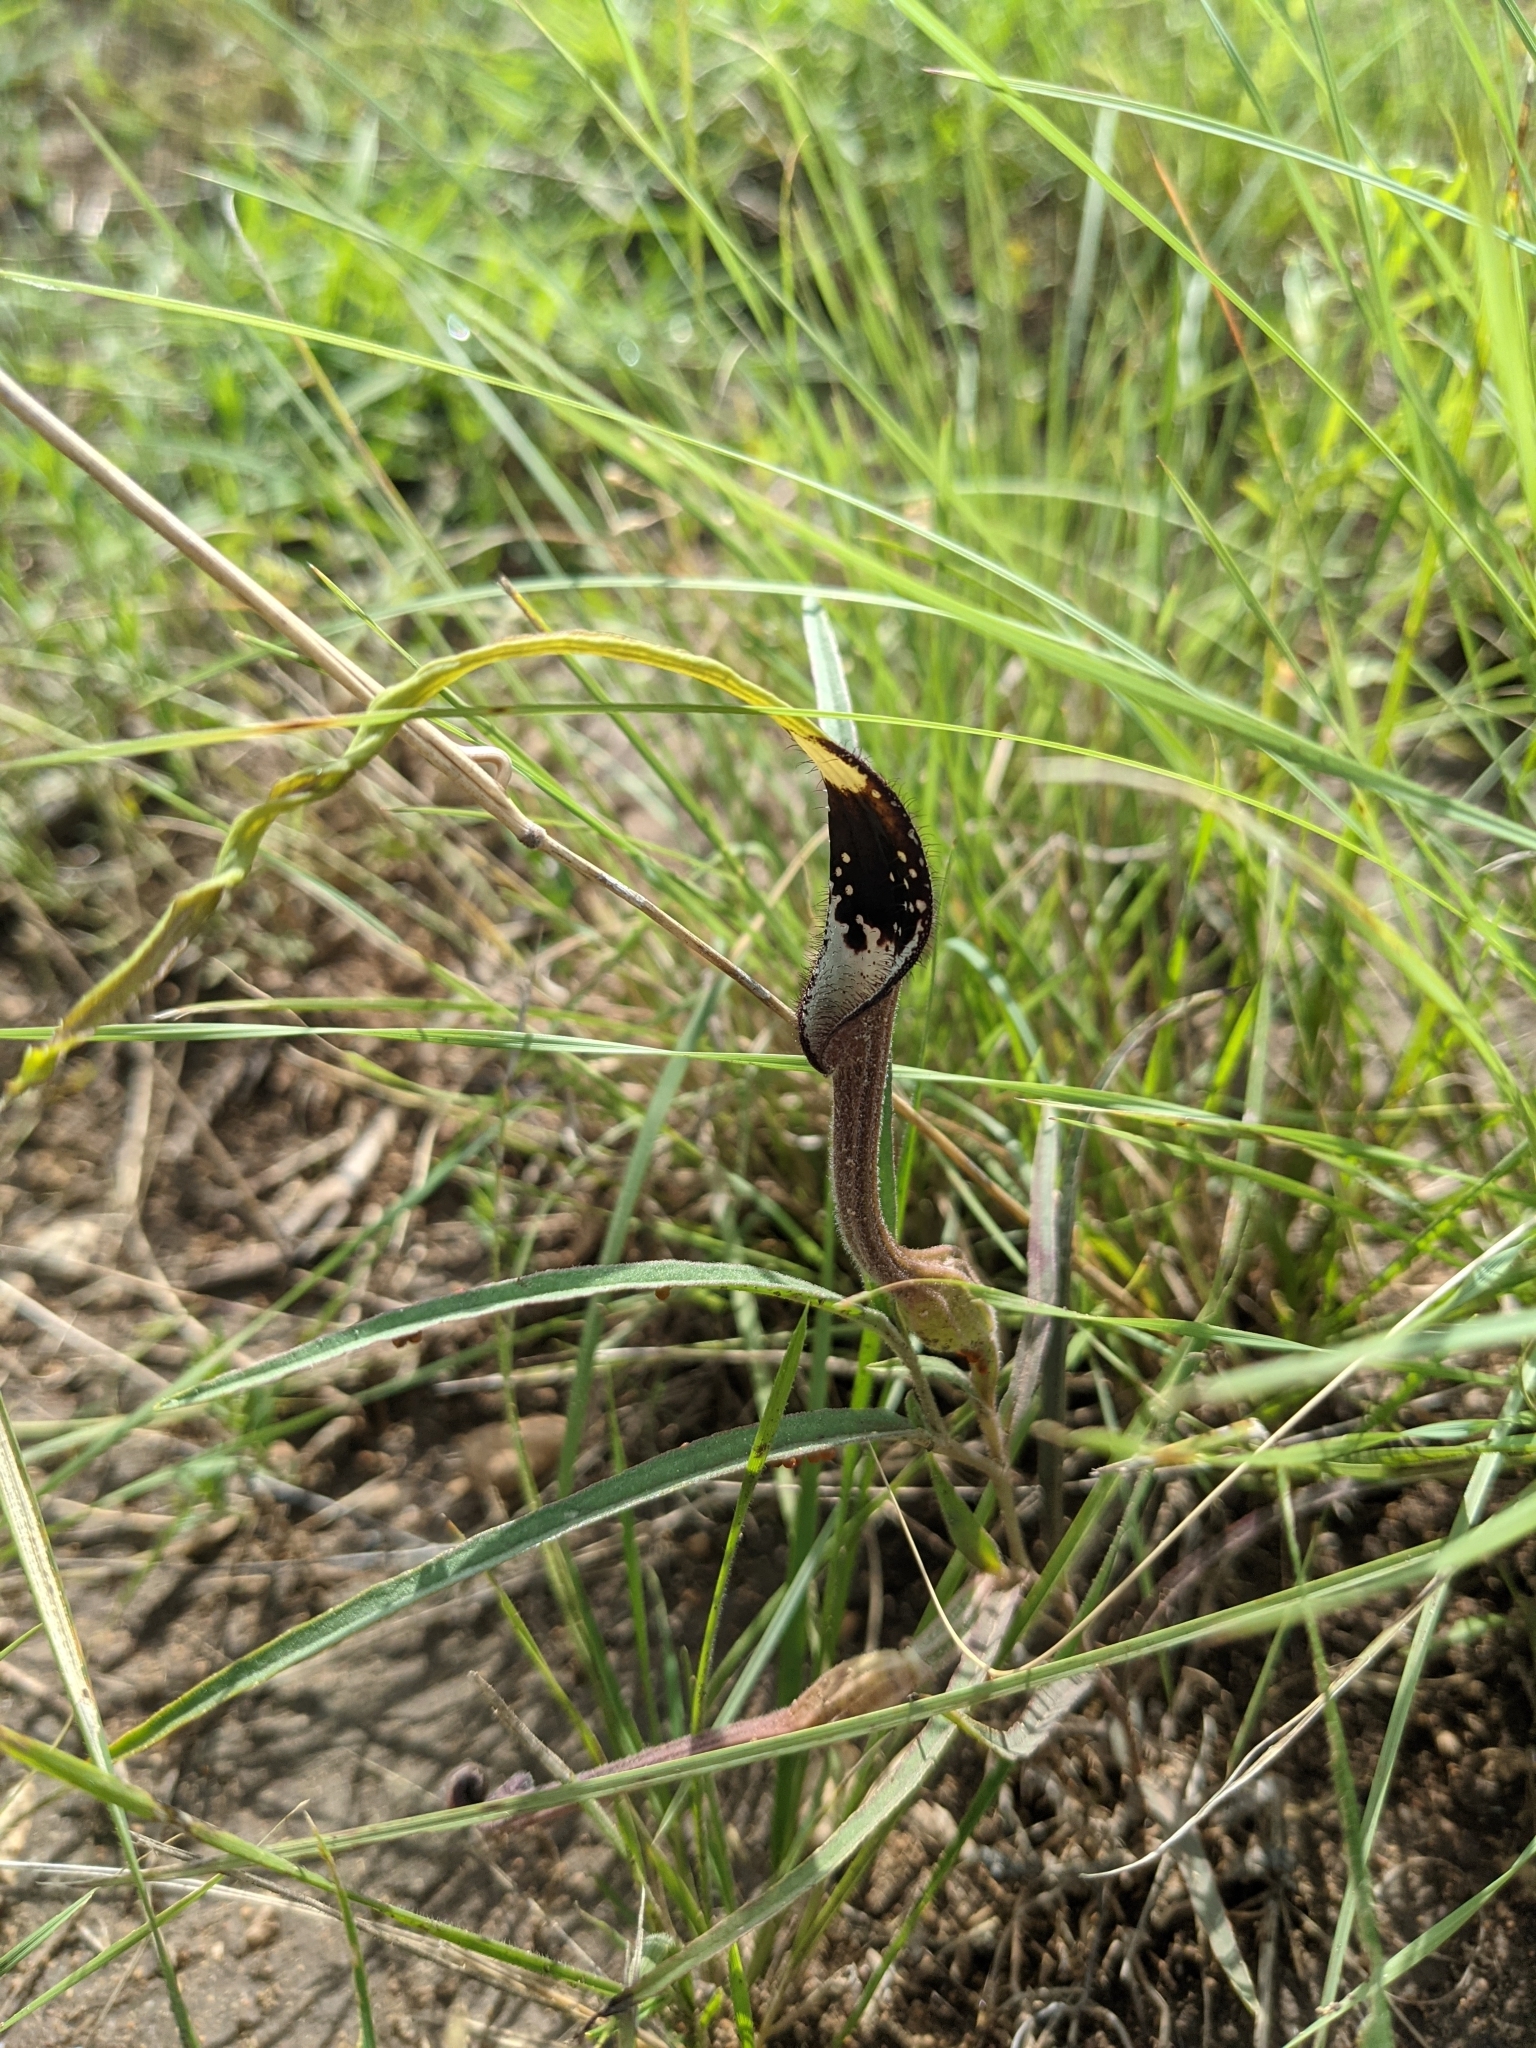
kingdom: Plantae
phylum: Tracheophyta
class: Magnoliopsida
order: Piperales
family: Aristolochiaceae
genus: Aristolochia
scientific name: Aristolochia erecta
